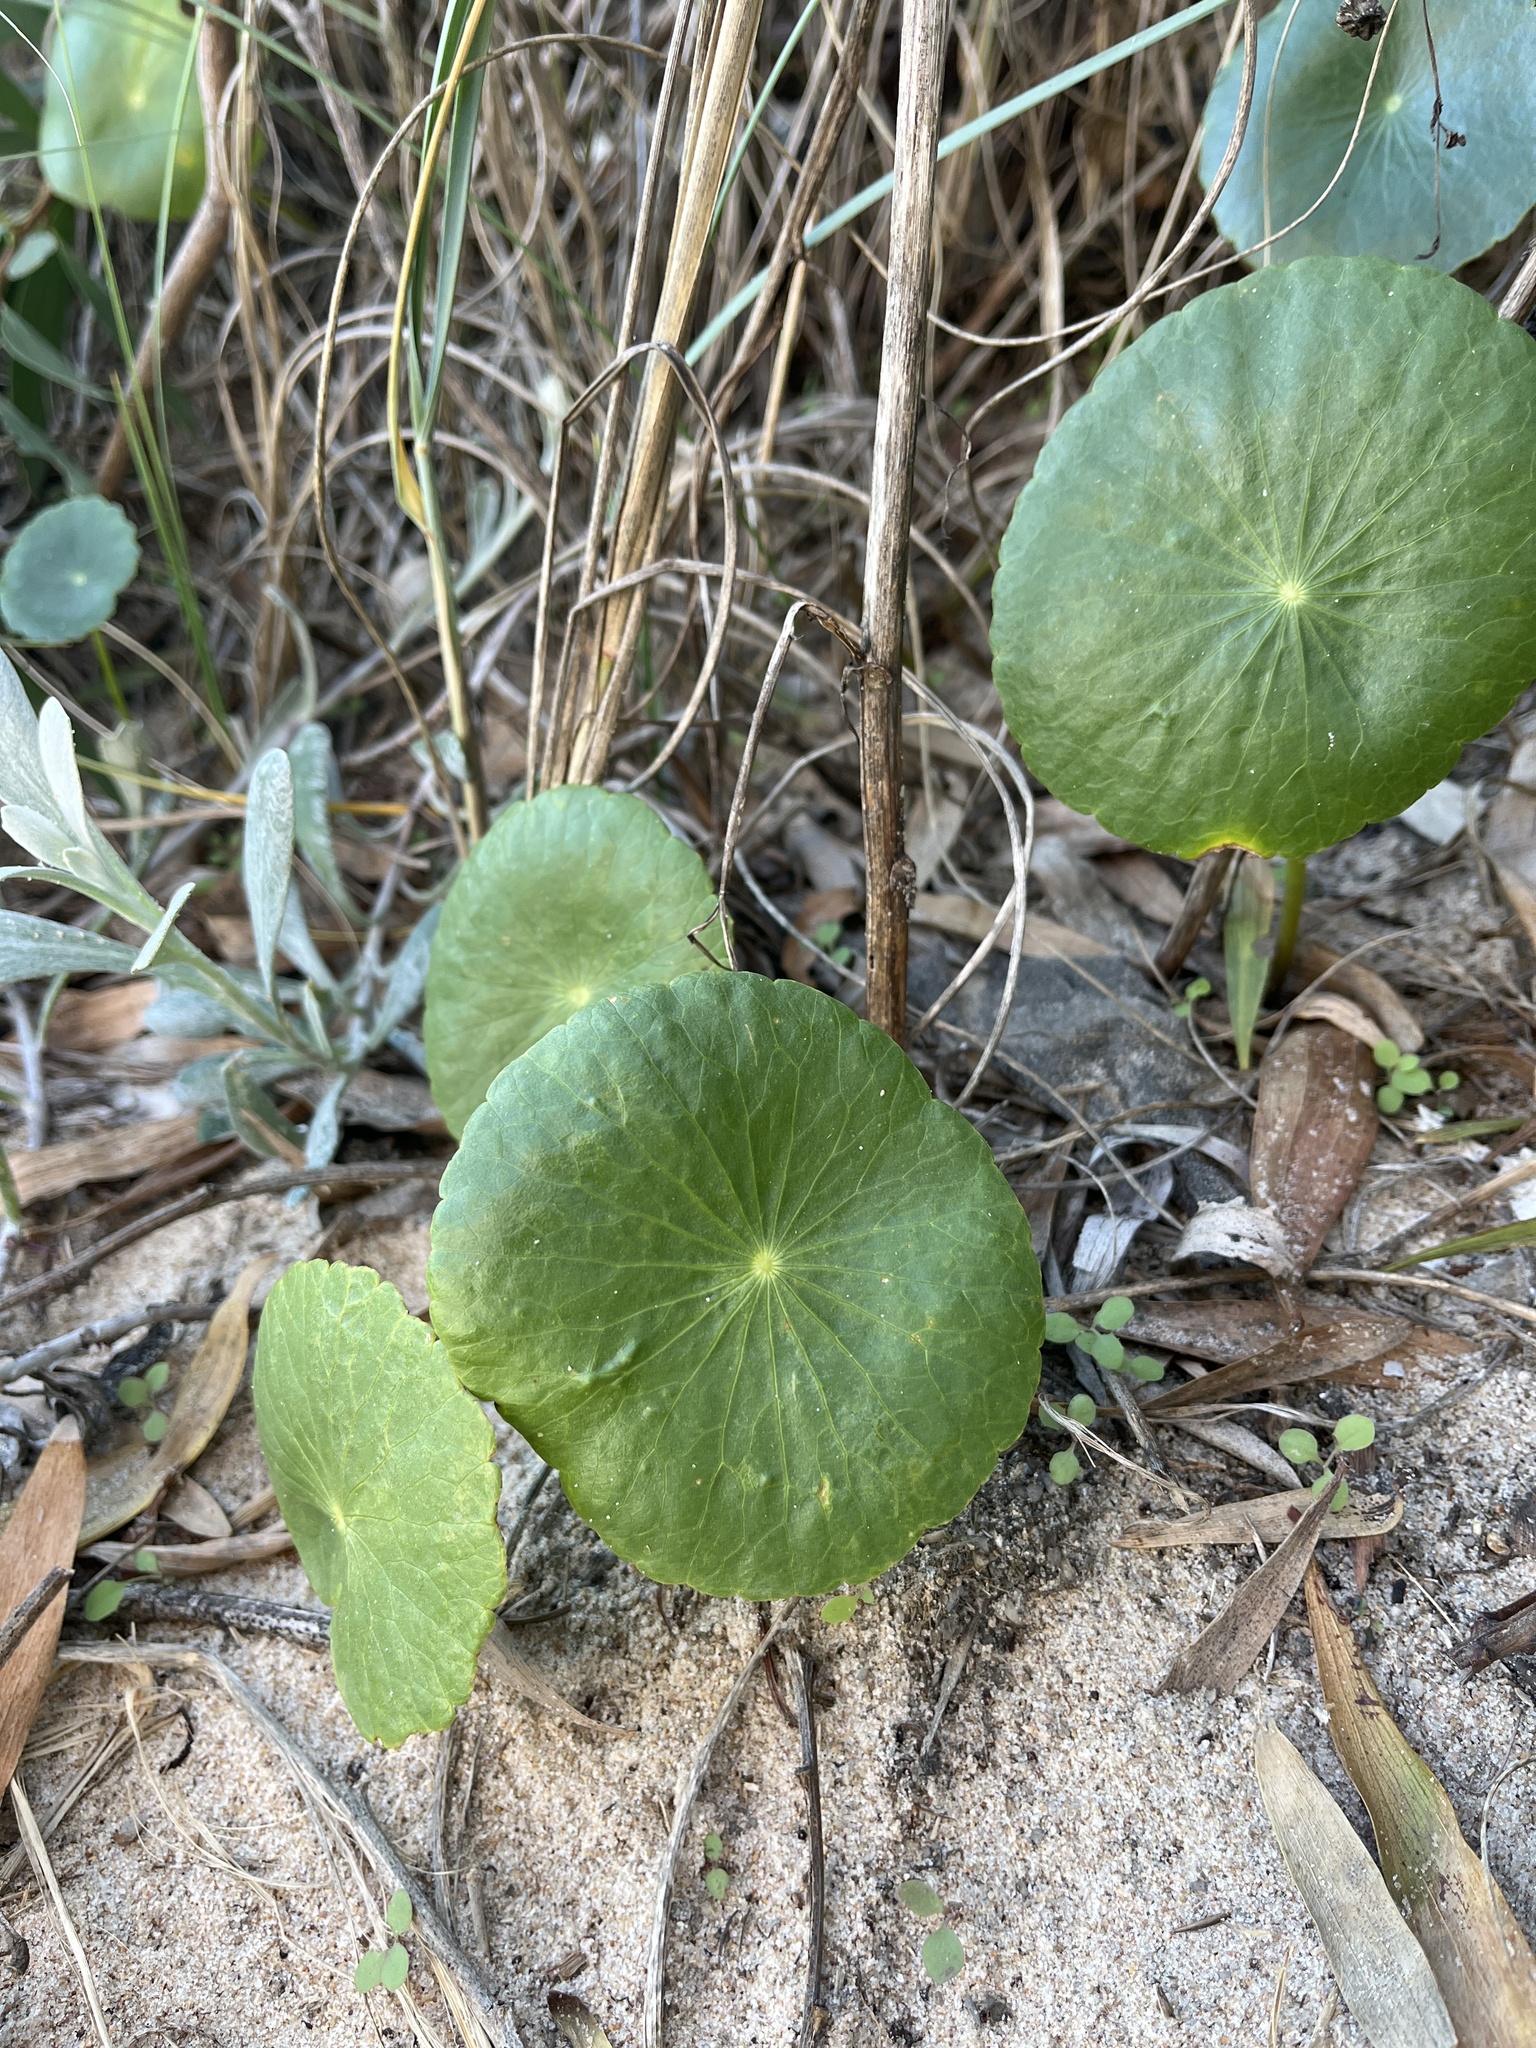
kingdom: Plantae
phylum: Tracheophyta
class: Magnoliopsida
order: Apiales
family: Araliaceae
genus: Hydrocotyle
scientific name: Hydrocotyle bonariensis
